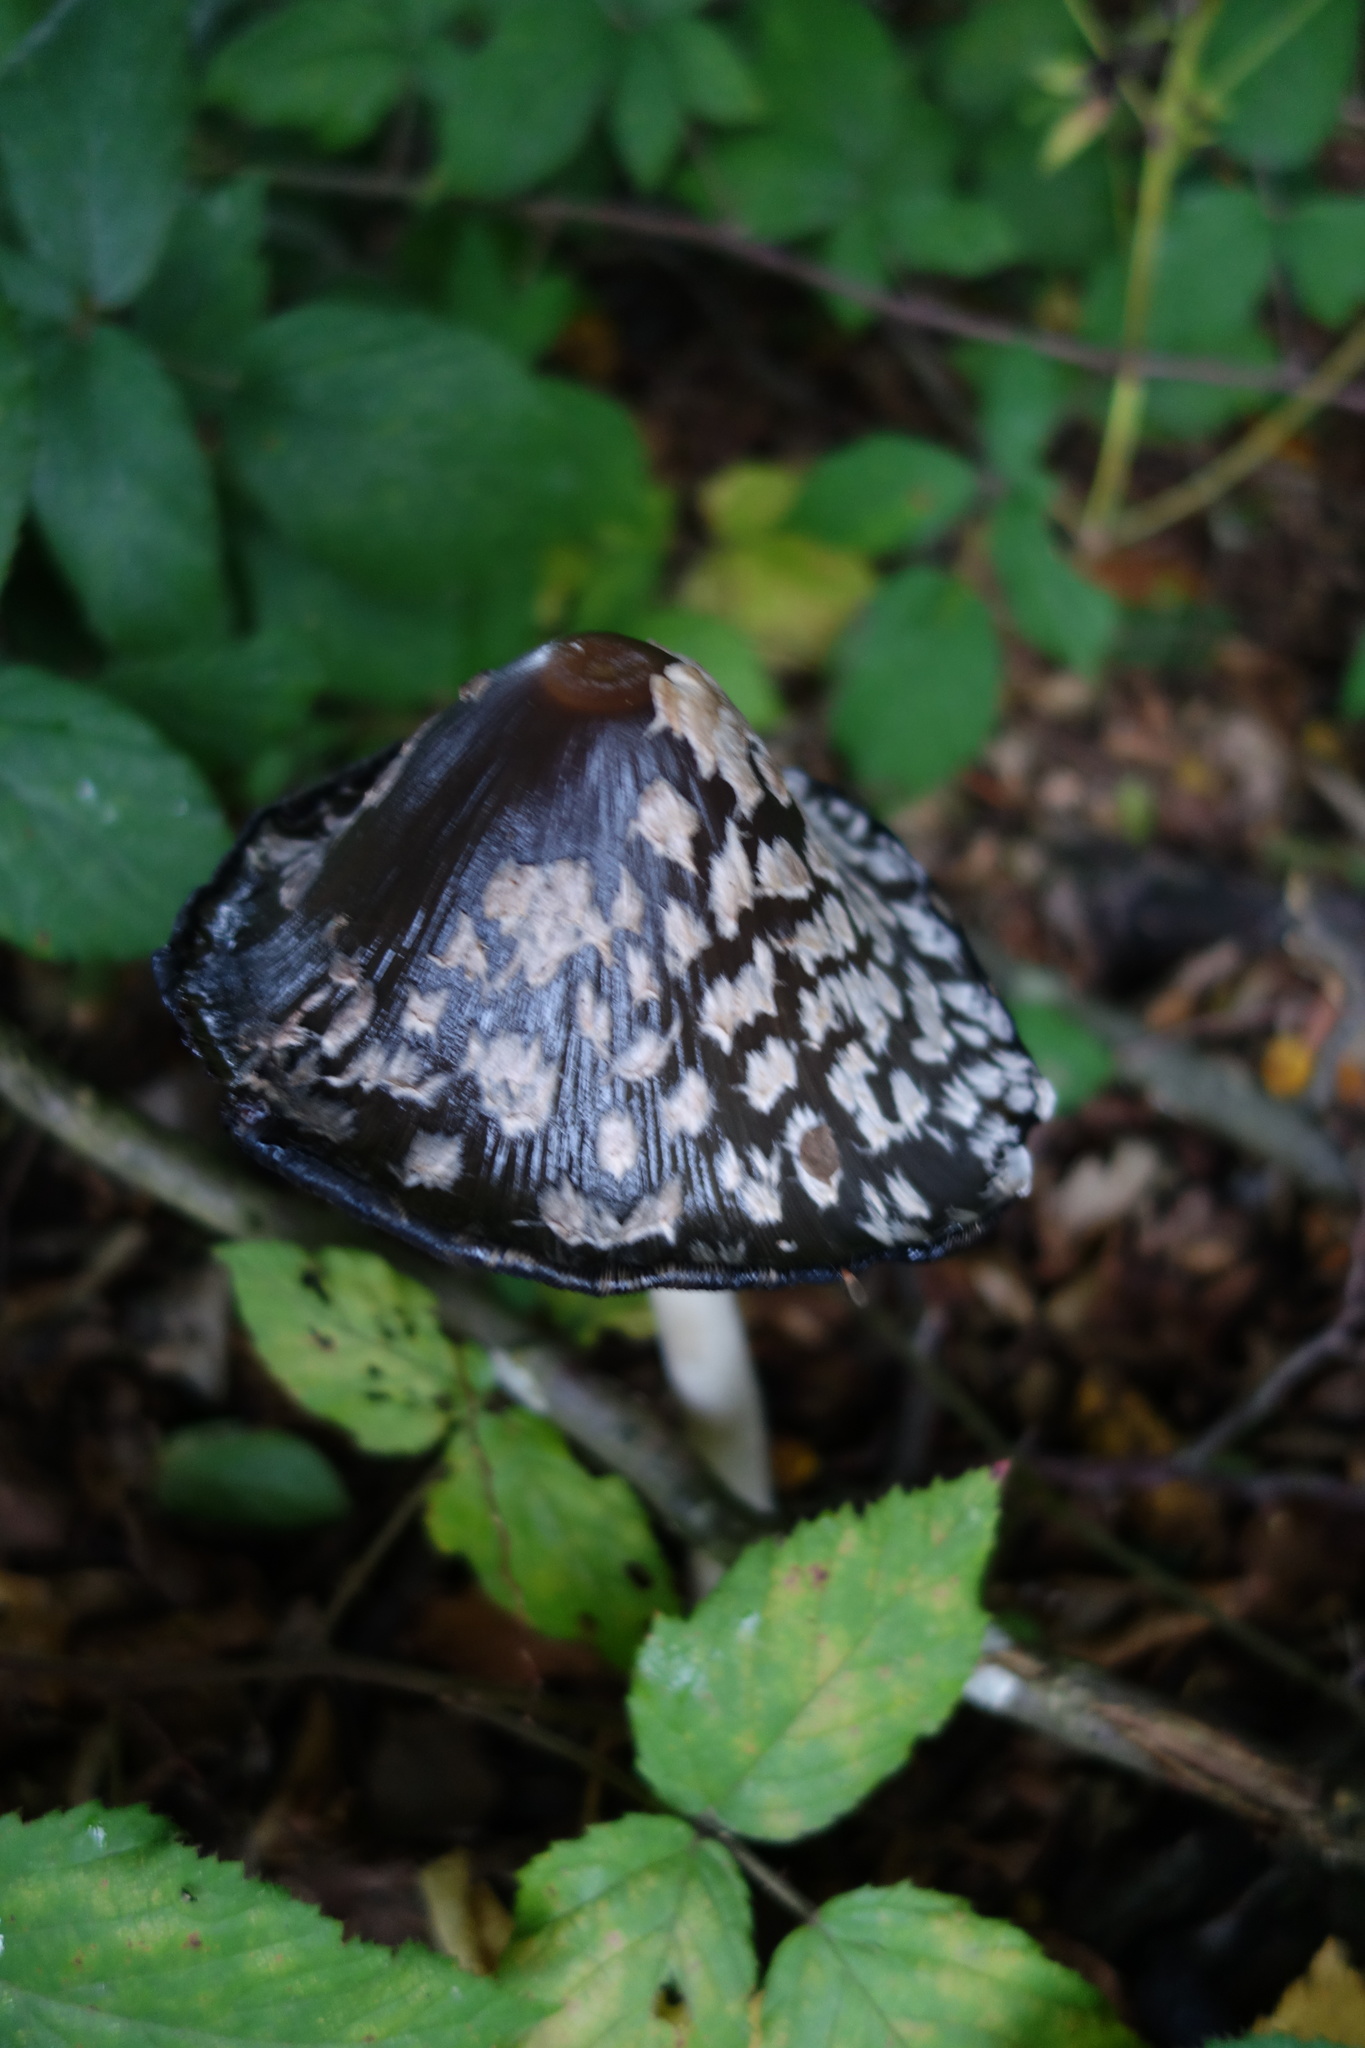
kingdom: Fungi
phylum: Basidiomycota
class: Agaricomycetes
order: Agaricales
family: Psathyrellaceae
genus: Coprinopsis
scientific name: Coprinopsis picacea
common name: Magpie inkcap
